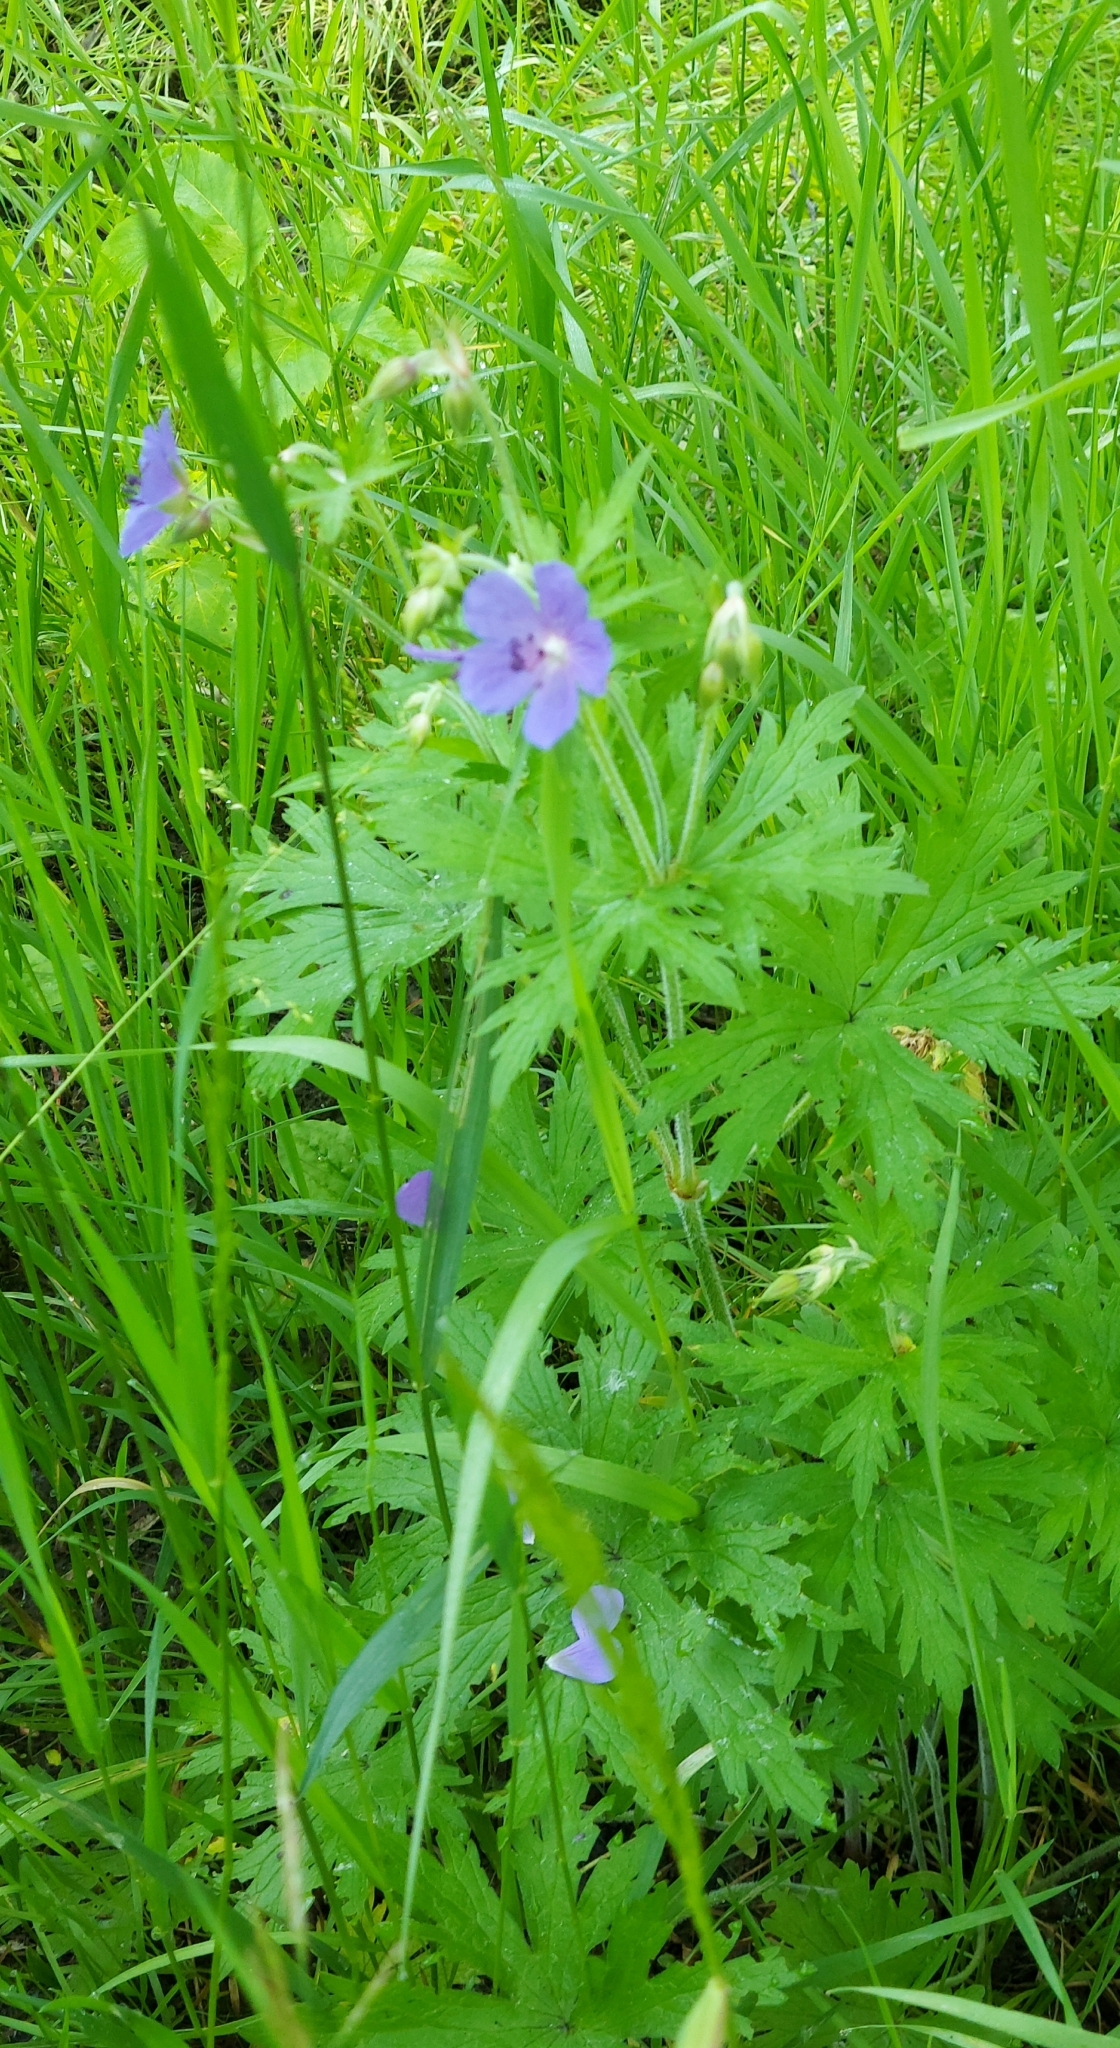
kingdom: Plantae
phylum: Tracheophyta
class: Magnoliopsida
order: Geraniales
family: Geraniaceae
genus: Geranium
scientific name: Geranium pratense
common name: Meadow crane's-bill
